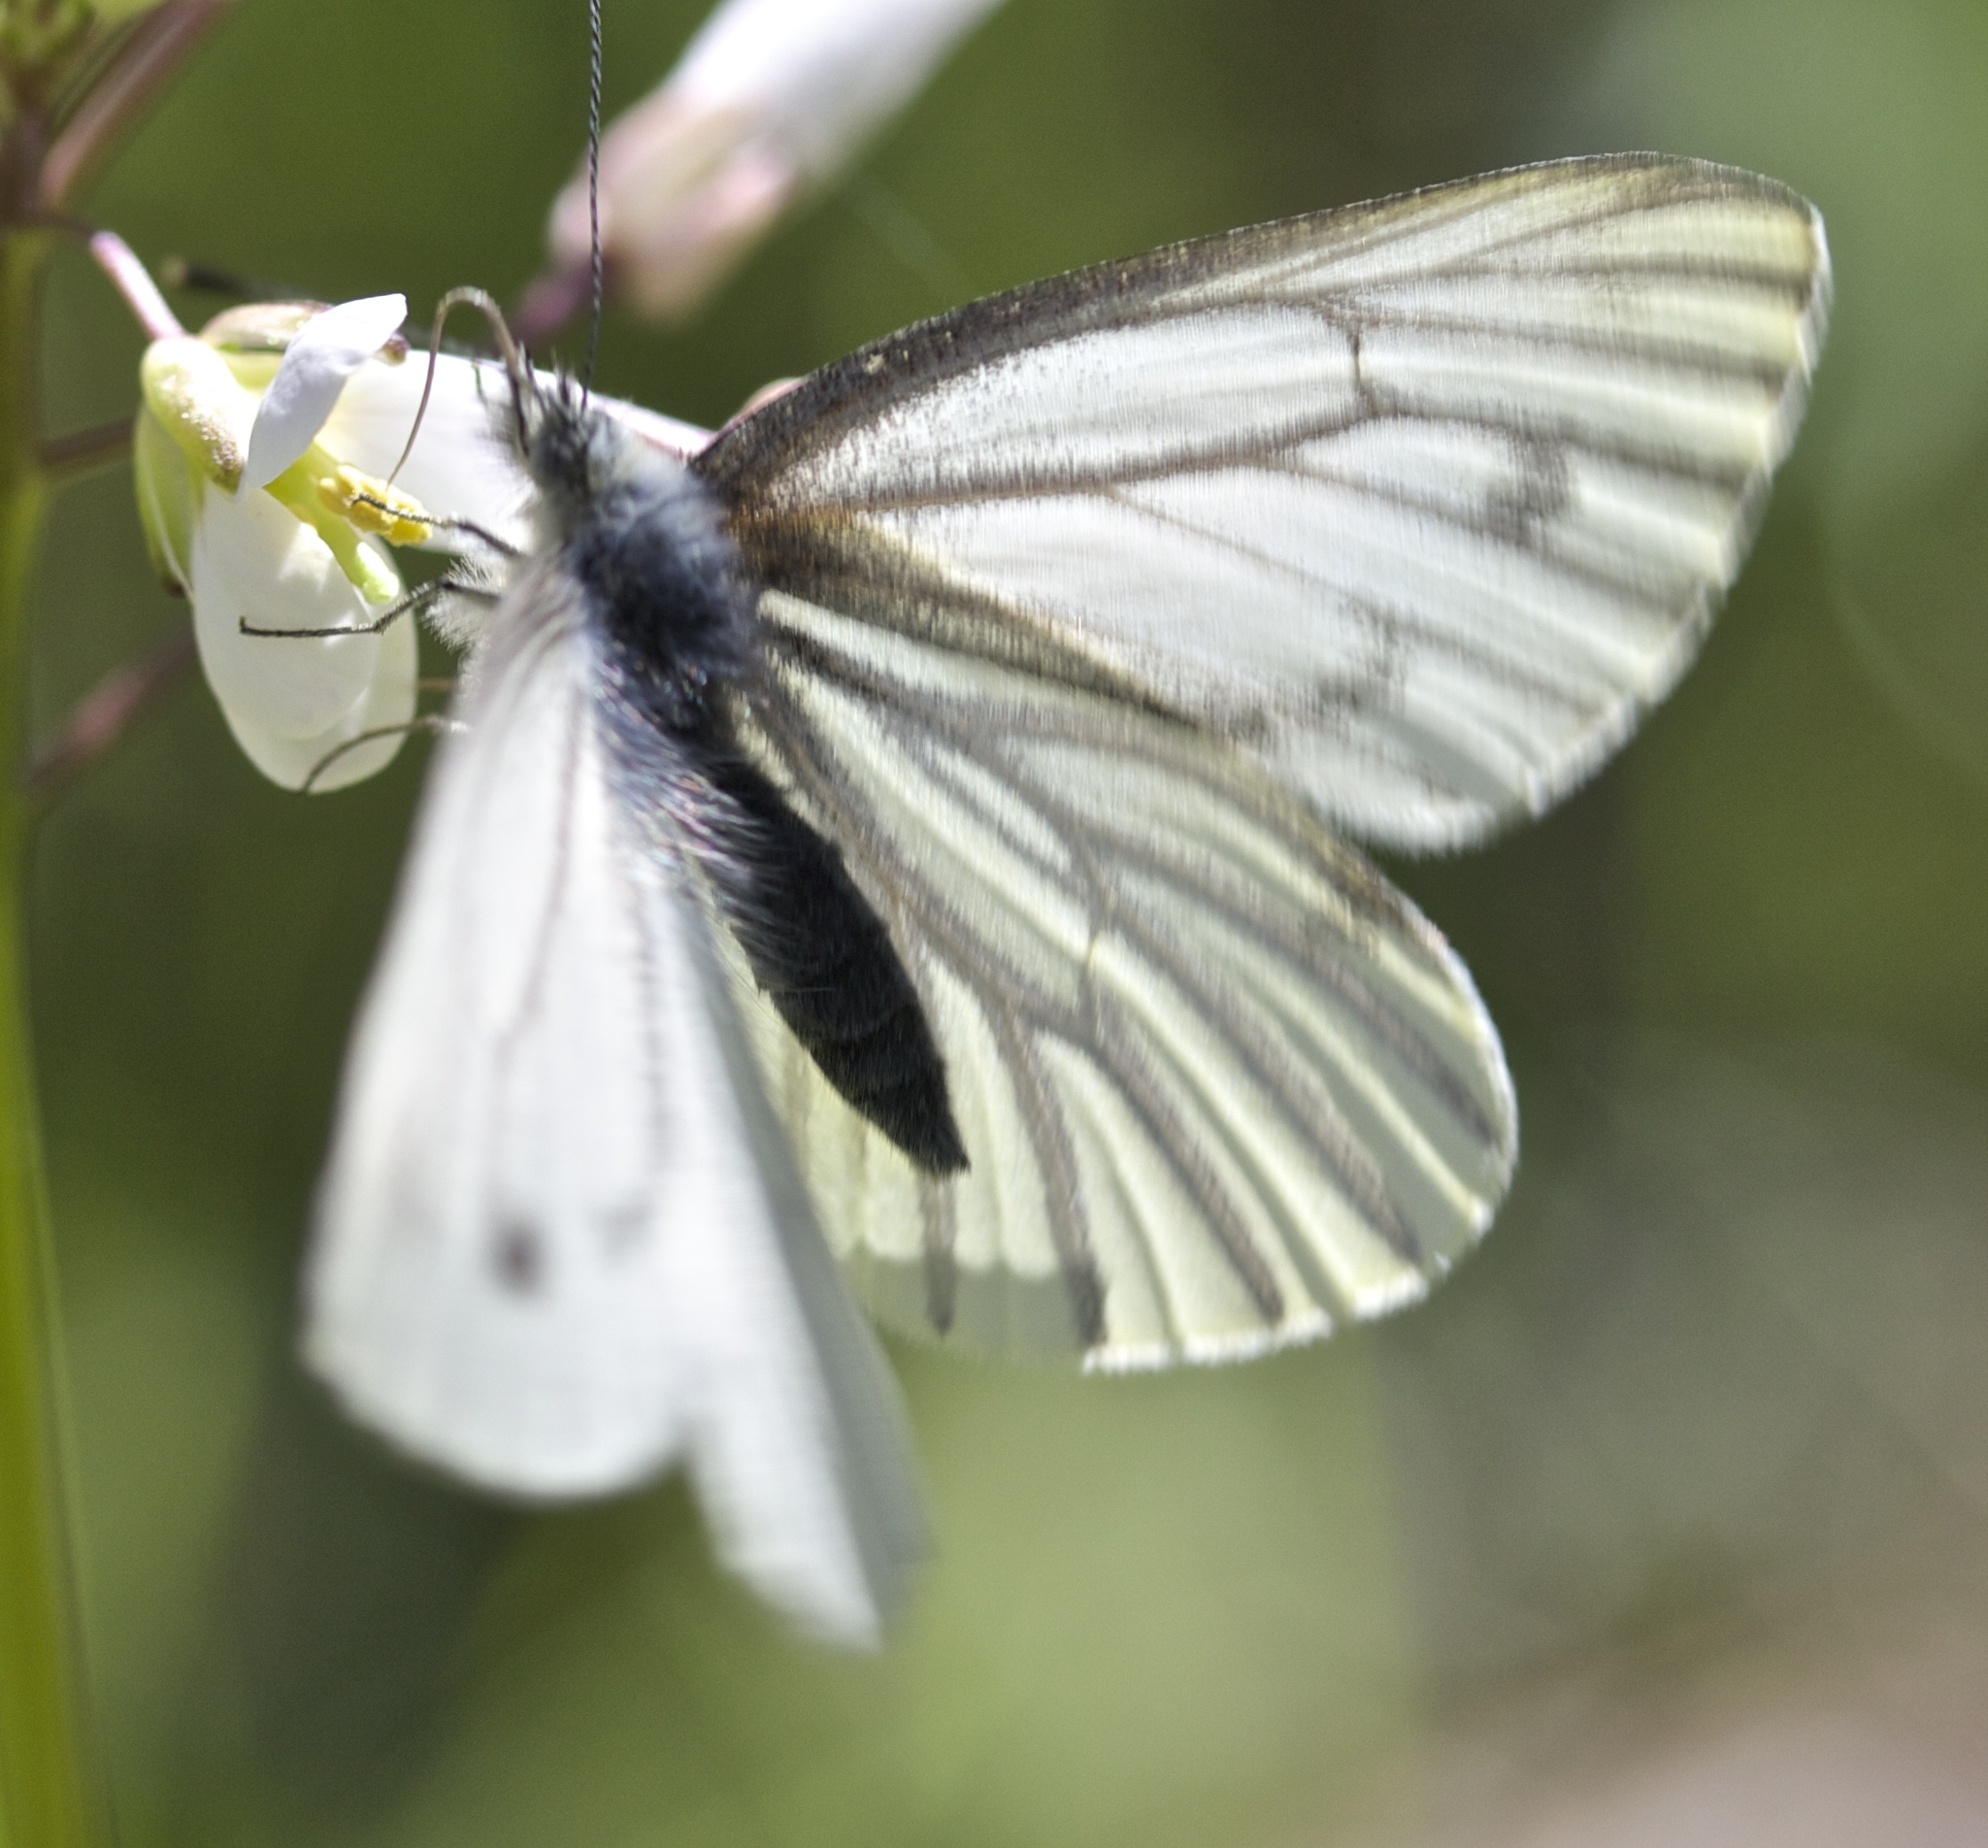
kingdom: Animalia
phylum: Arthropoda
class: Insecta
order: Lepidoptera
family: Pieridae
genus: Pieris
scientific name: Pieris marginalis
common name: Margined white
